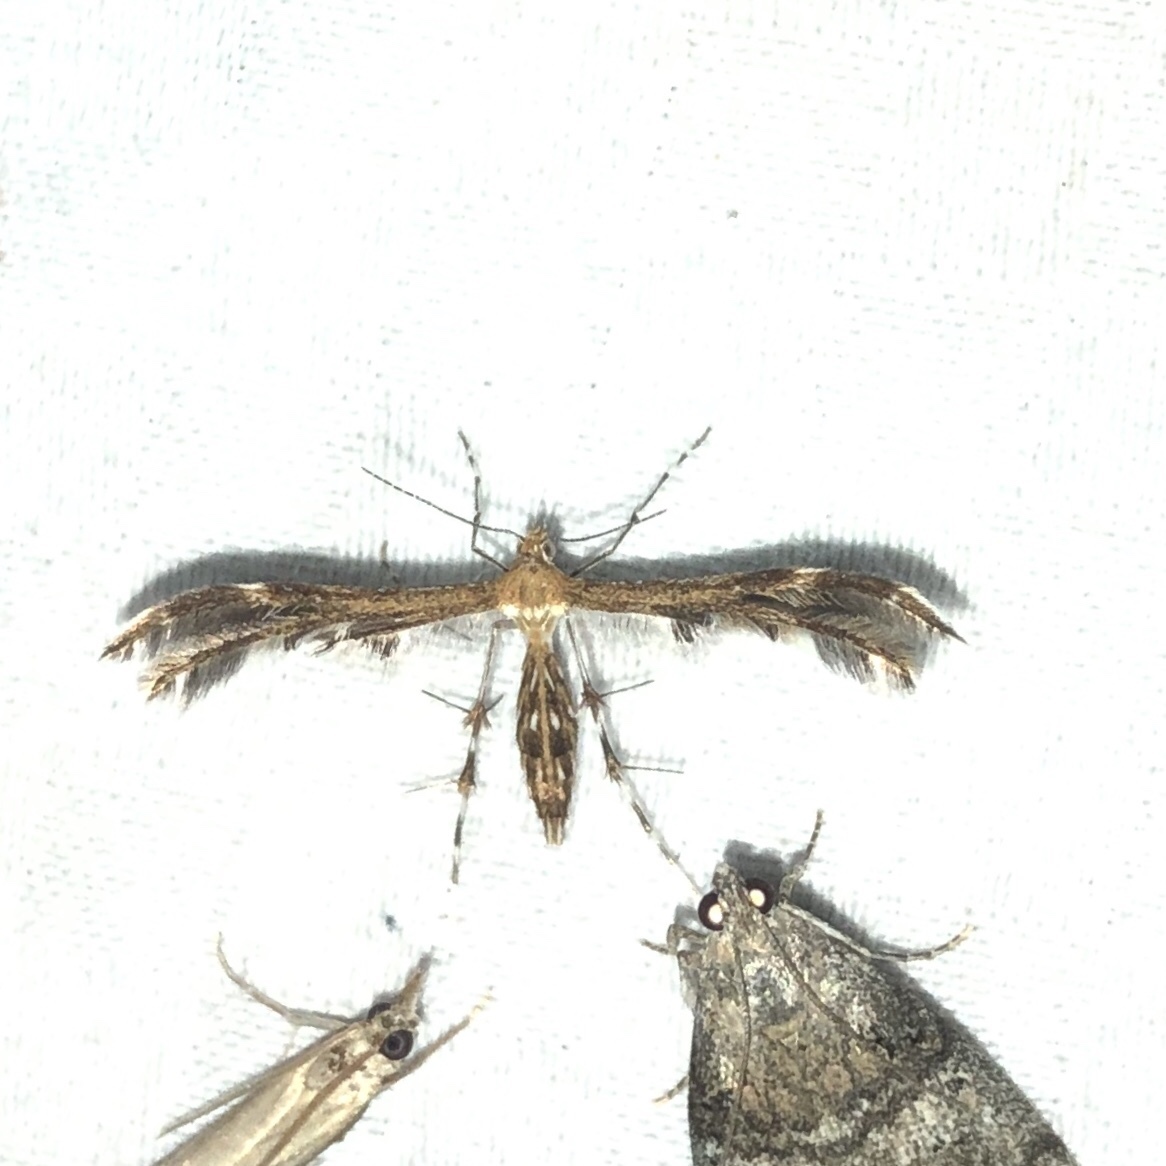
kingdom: Animalia
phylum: Arthropoda
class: Insecta
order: Lepidoptera
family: Pterophoridae
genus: Dejongia
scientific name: Dejongia lobidactylus
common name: Lobed plume moth
